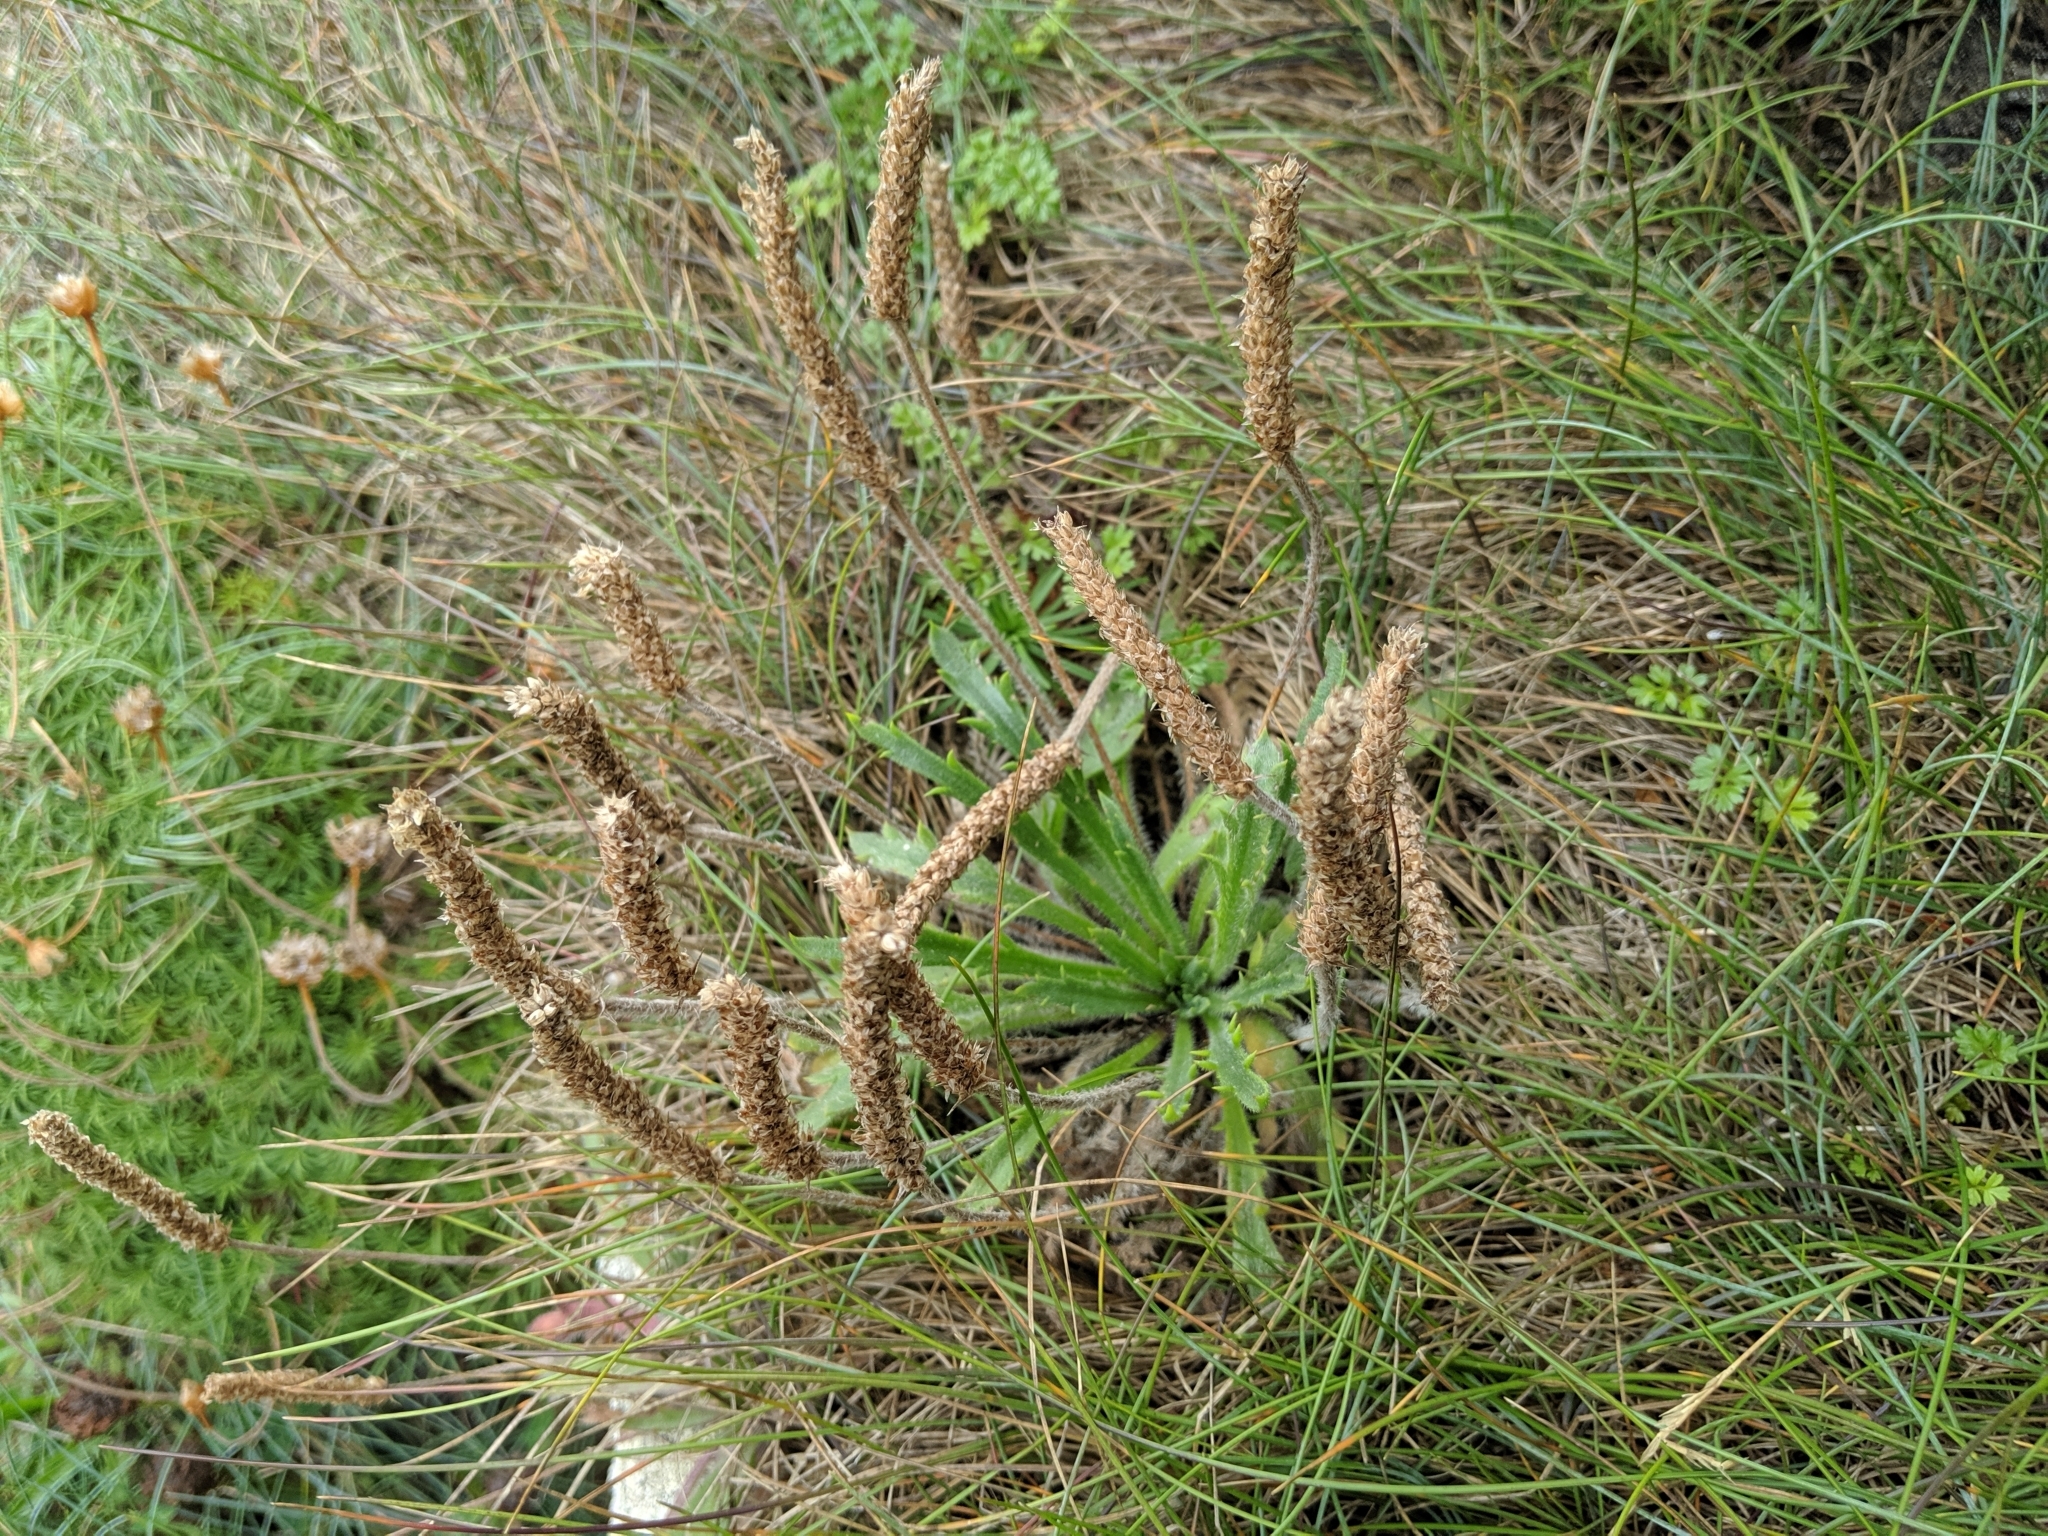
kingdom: Plantae
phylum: Tracheophyta
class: Magnoliopsida
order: Lamiales
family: Plantaginaceae
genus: Plantago
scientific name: Plantago coronopus
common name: Buck's-horn plantain
